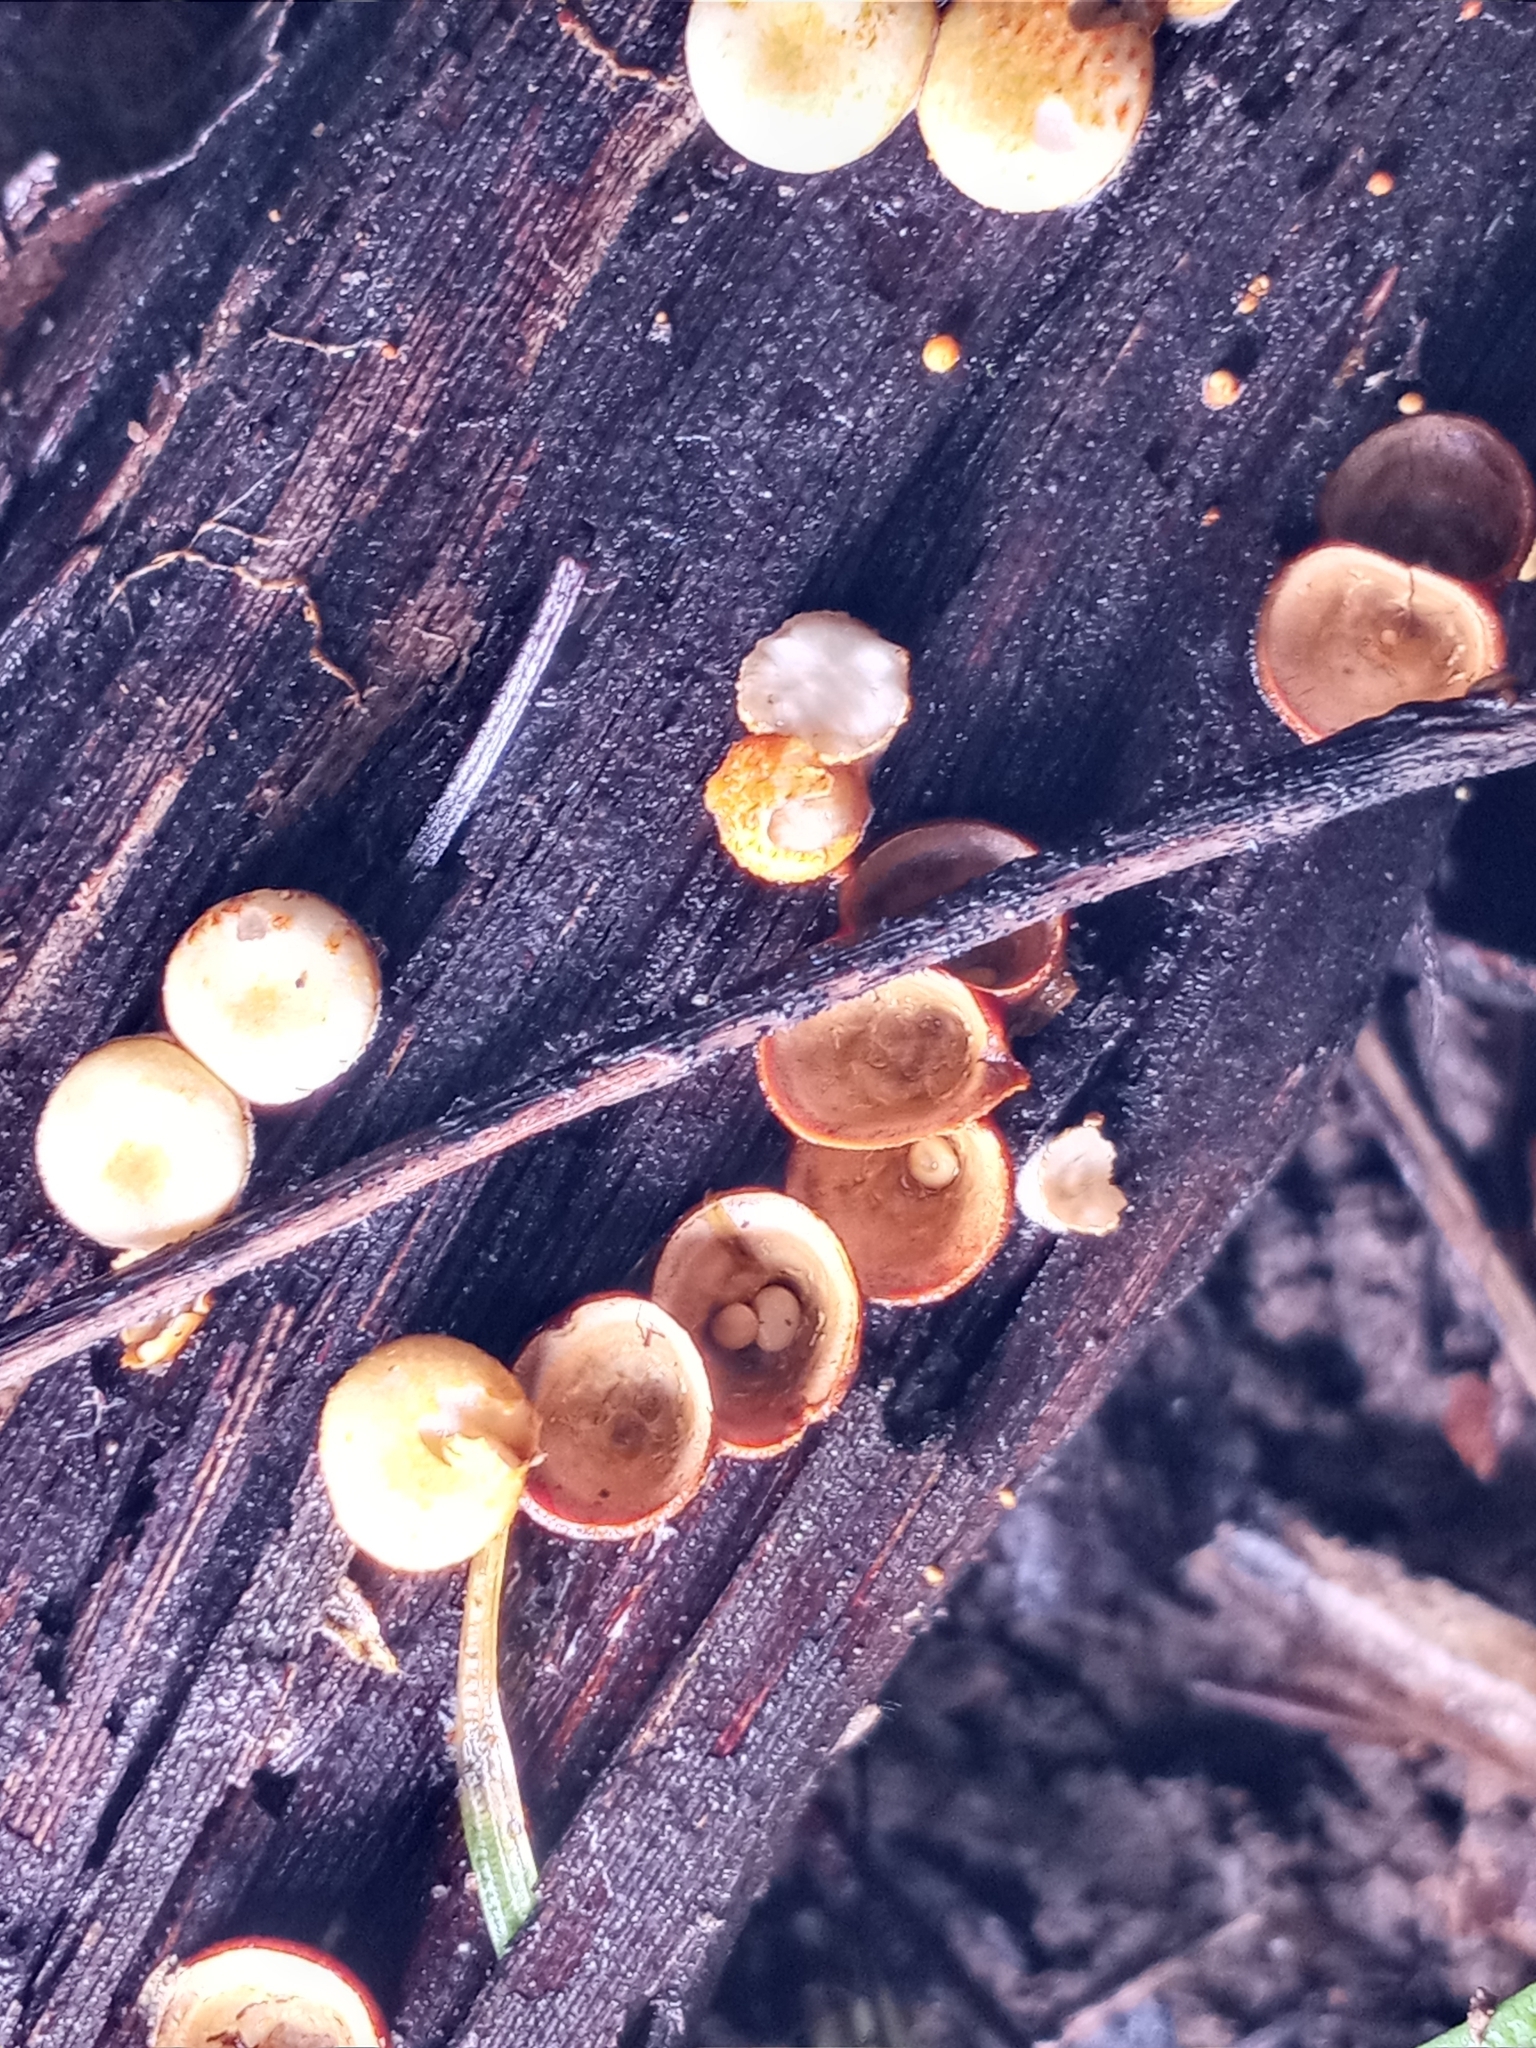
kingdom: Fungi
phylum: Basidiomycota
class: Agaricomycetes
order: Agaricales
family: Nidulariaceae
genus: Crucibulum
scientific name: Crucibulum laeve
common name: Common bird's nest
